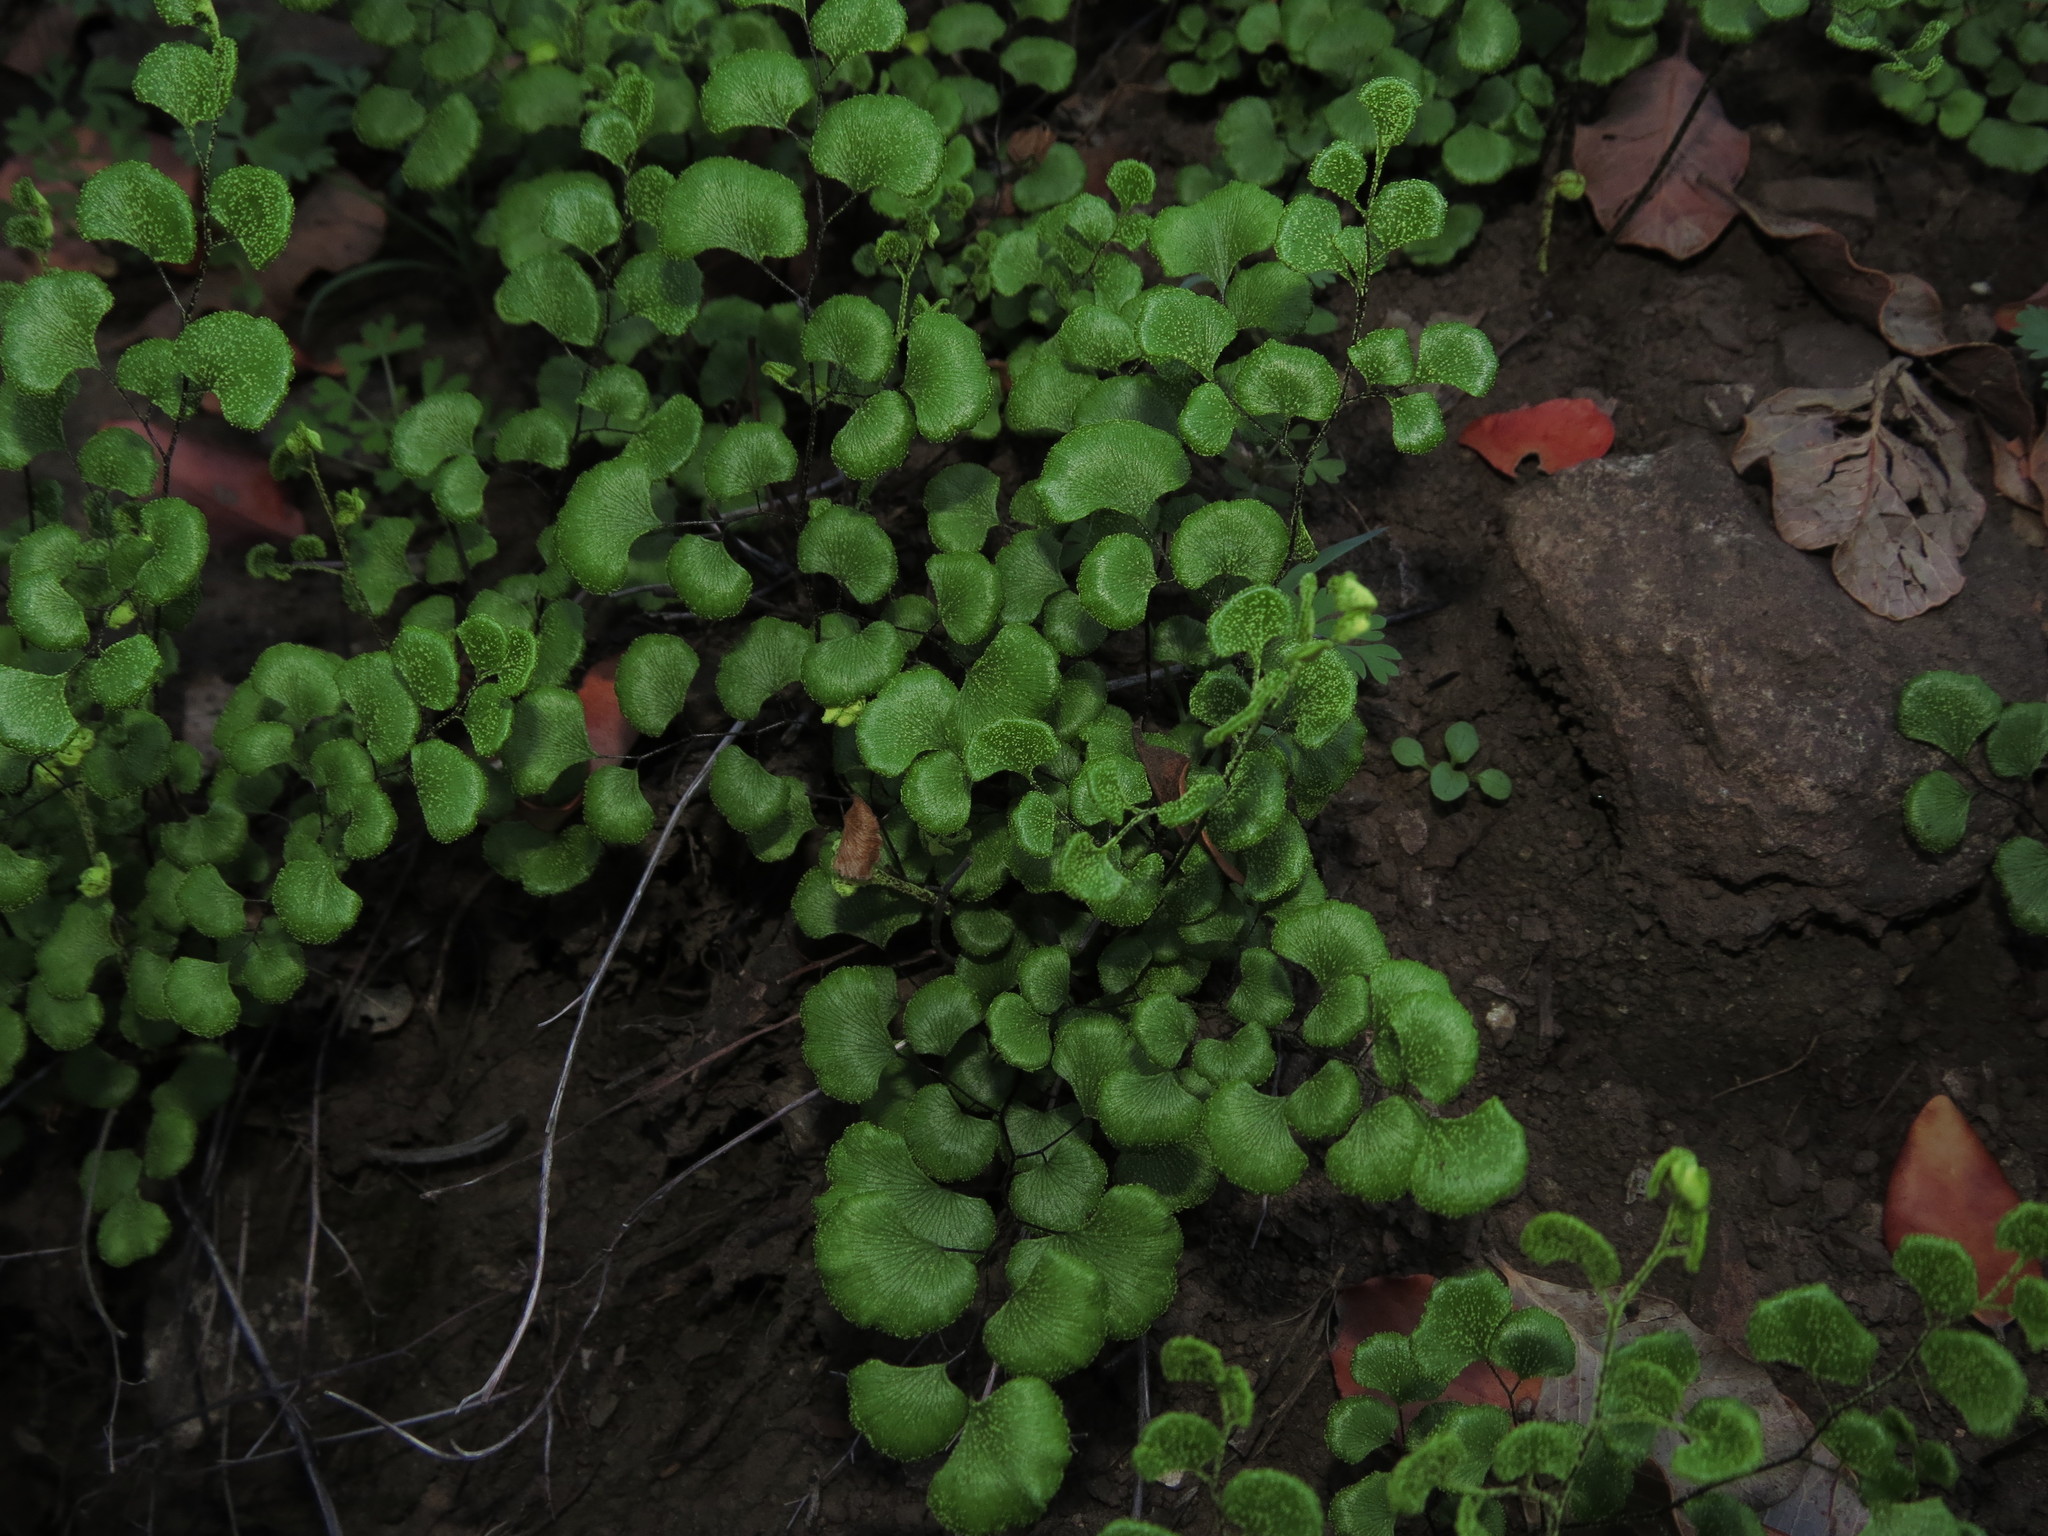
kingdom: Plantae
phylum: Tracheophyta
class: Polypodiopsida
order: Polypodiales
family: Pteridaceae
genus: Adiantum
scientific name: Adiantum sulphureum
